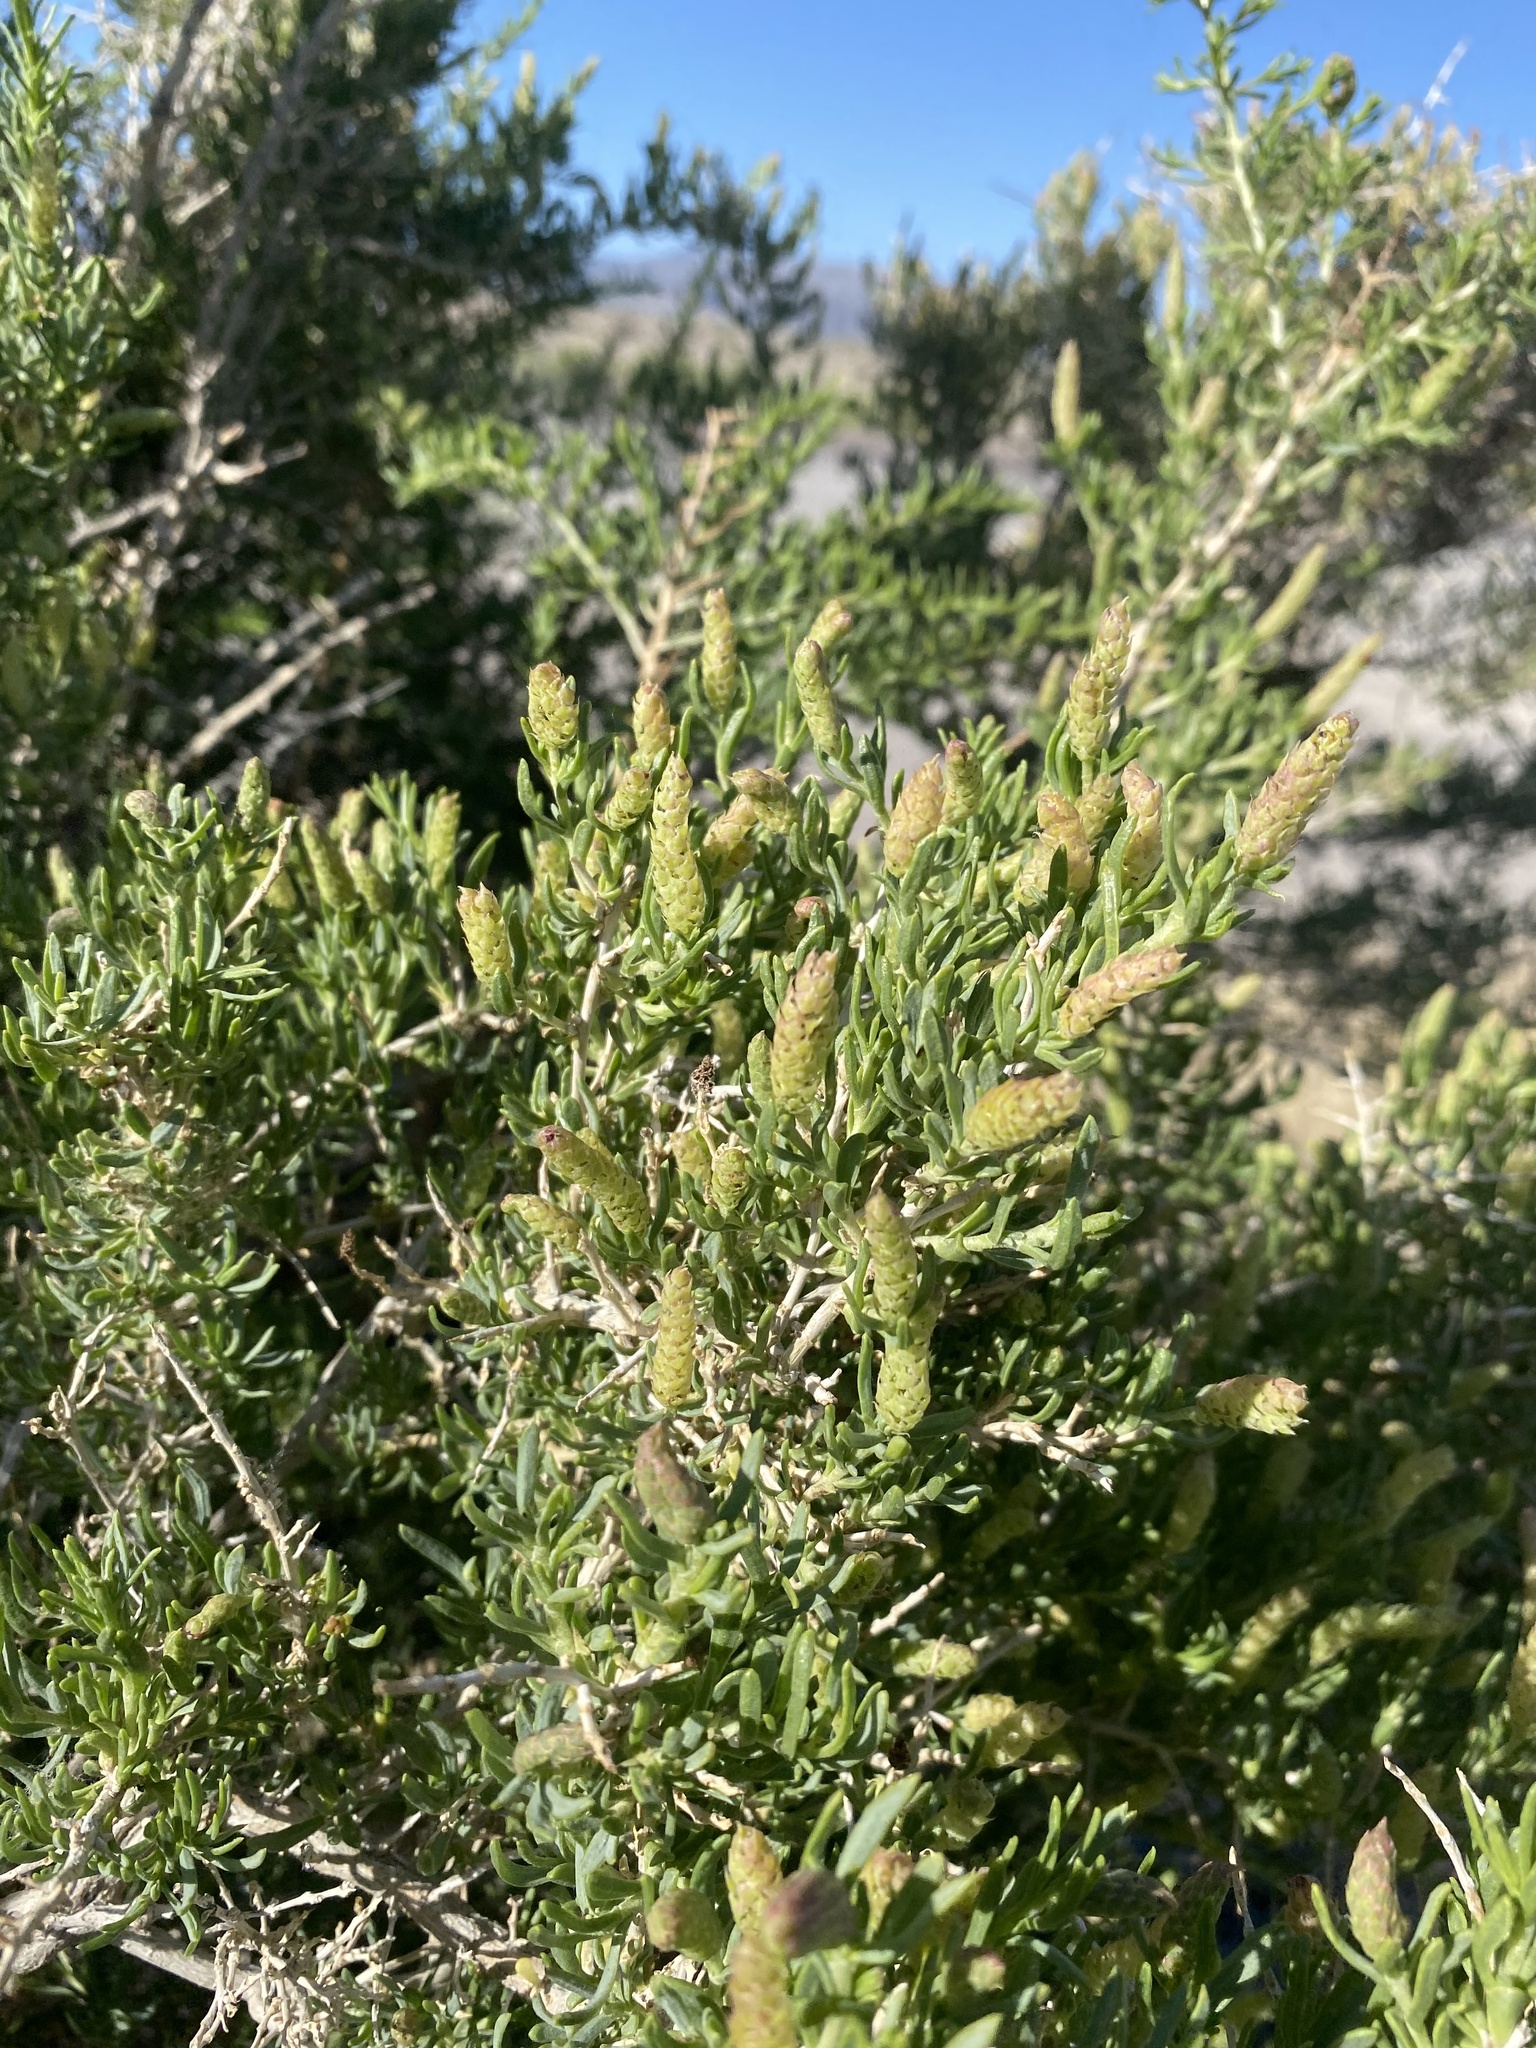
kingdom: Plantae
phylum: Tracheophyta
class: Magnoliopsida
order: Caryophyllales
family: Sarcobataceae
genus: Sarcobatus
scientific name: Sarcobatus vermiculatus
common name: Greasewood
